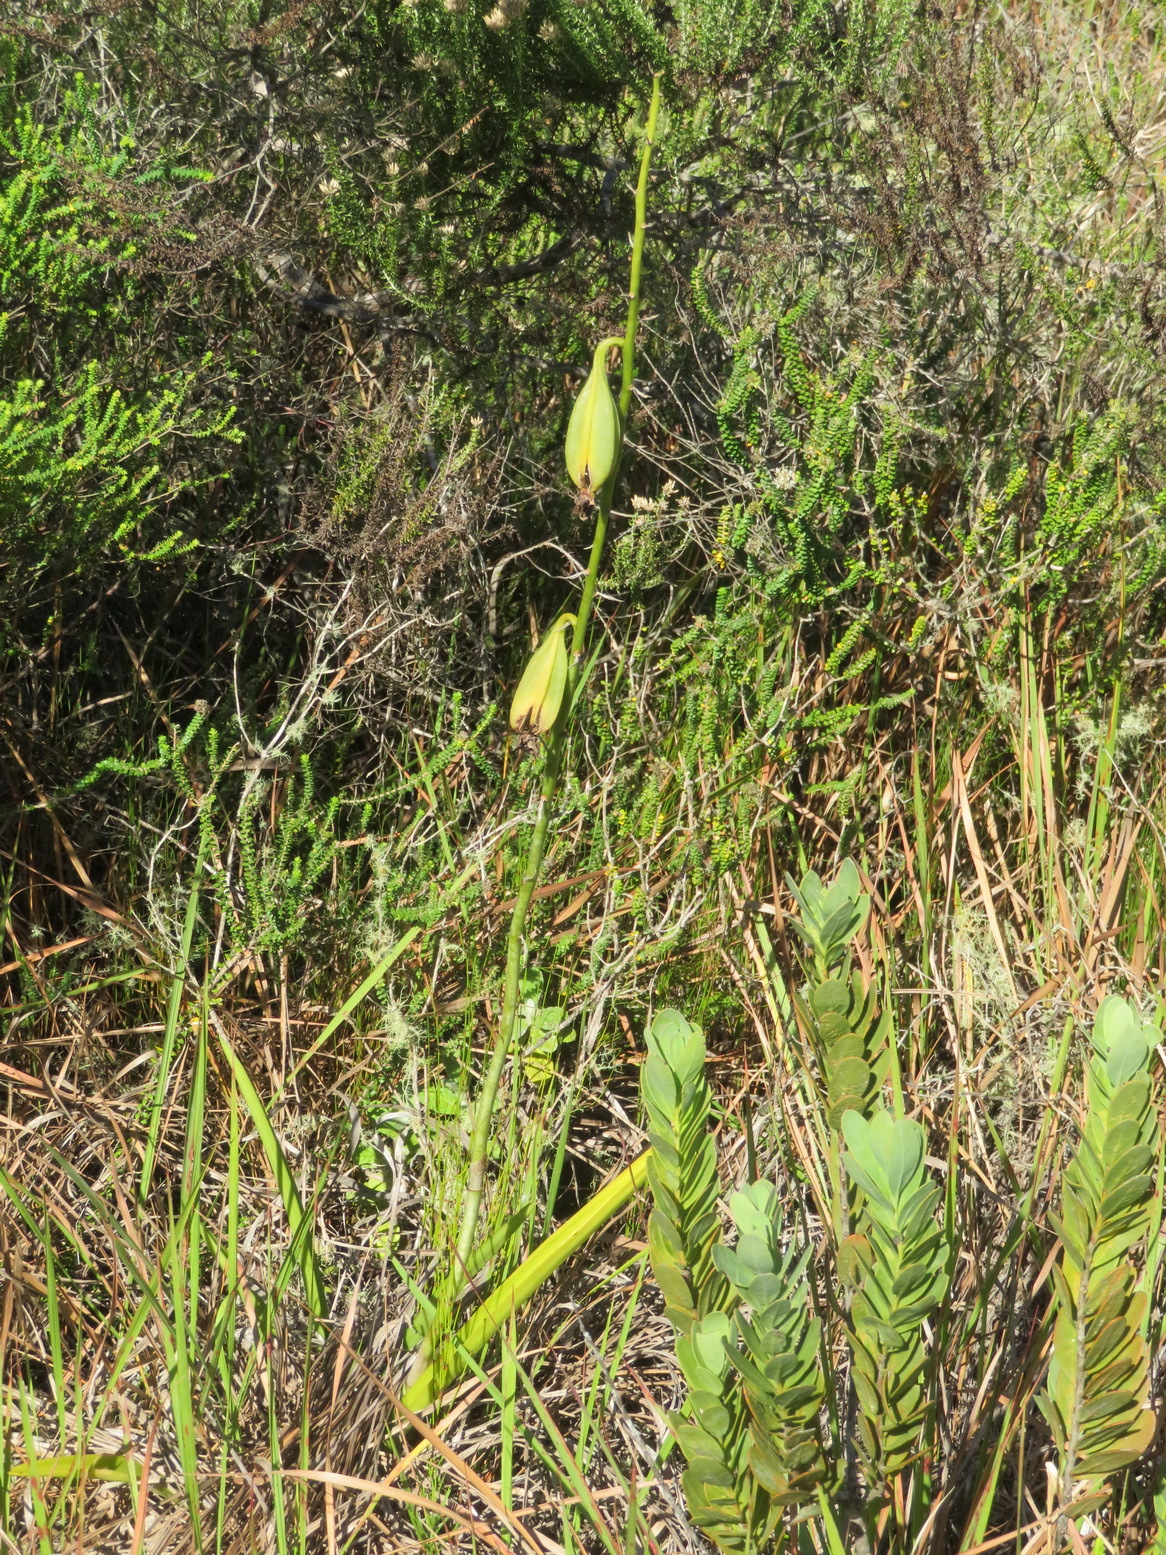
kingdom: Plantae
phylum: Tracheophyta
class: Liliopsida
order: Asparagales
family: Orchidaceae
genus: Eulophia
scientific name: Eulophia speciosa
